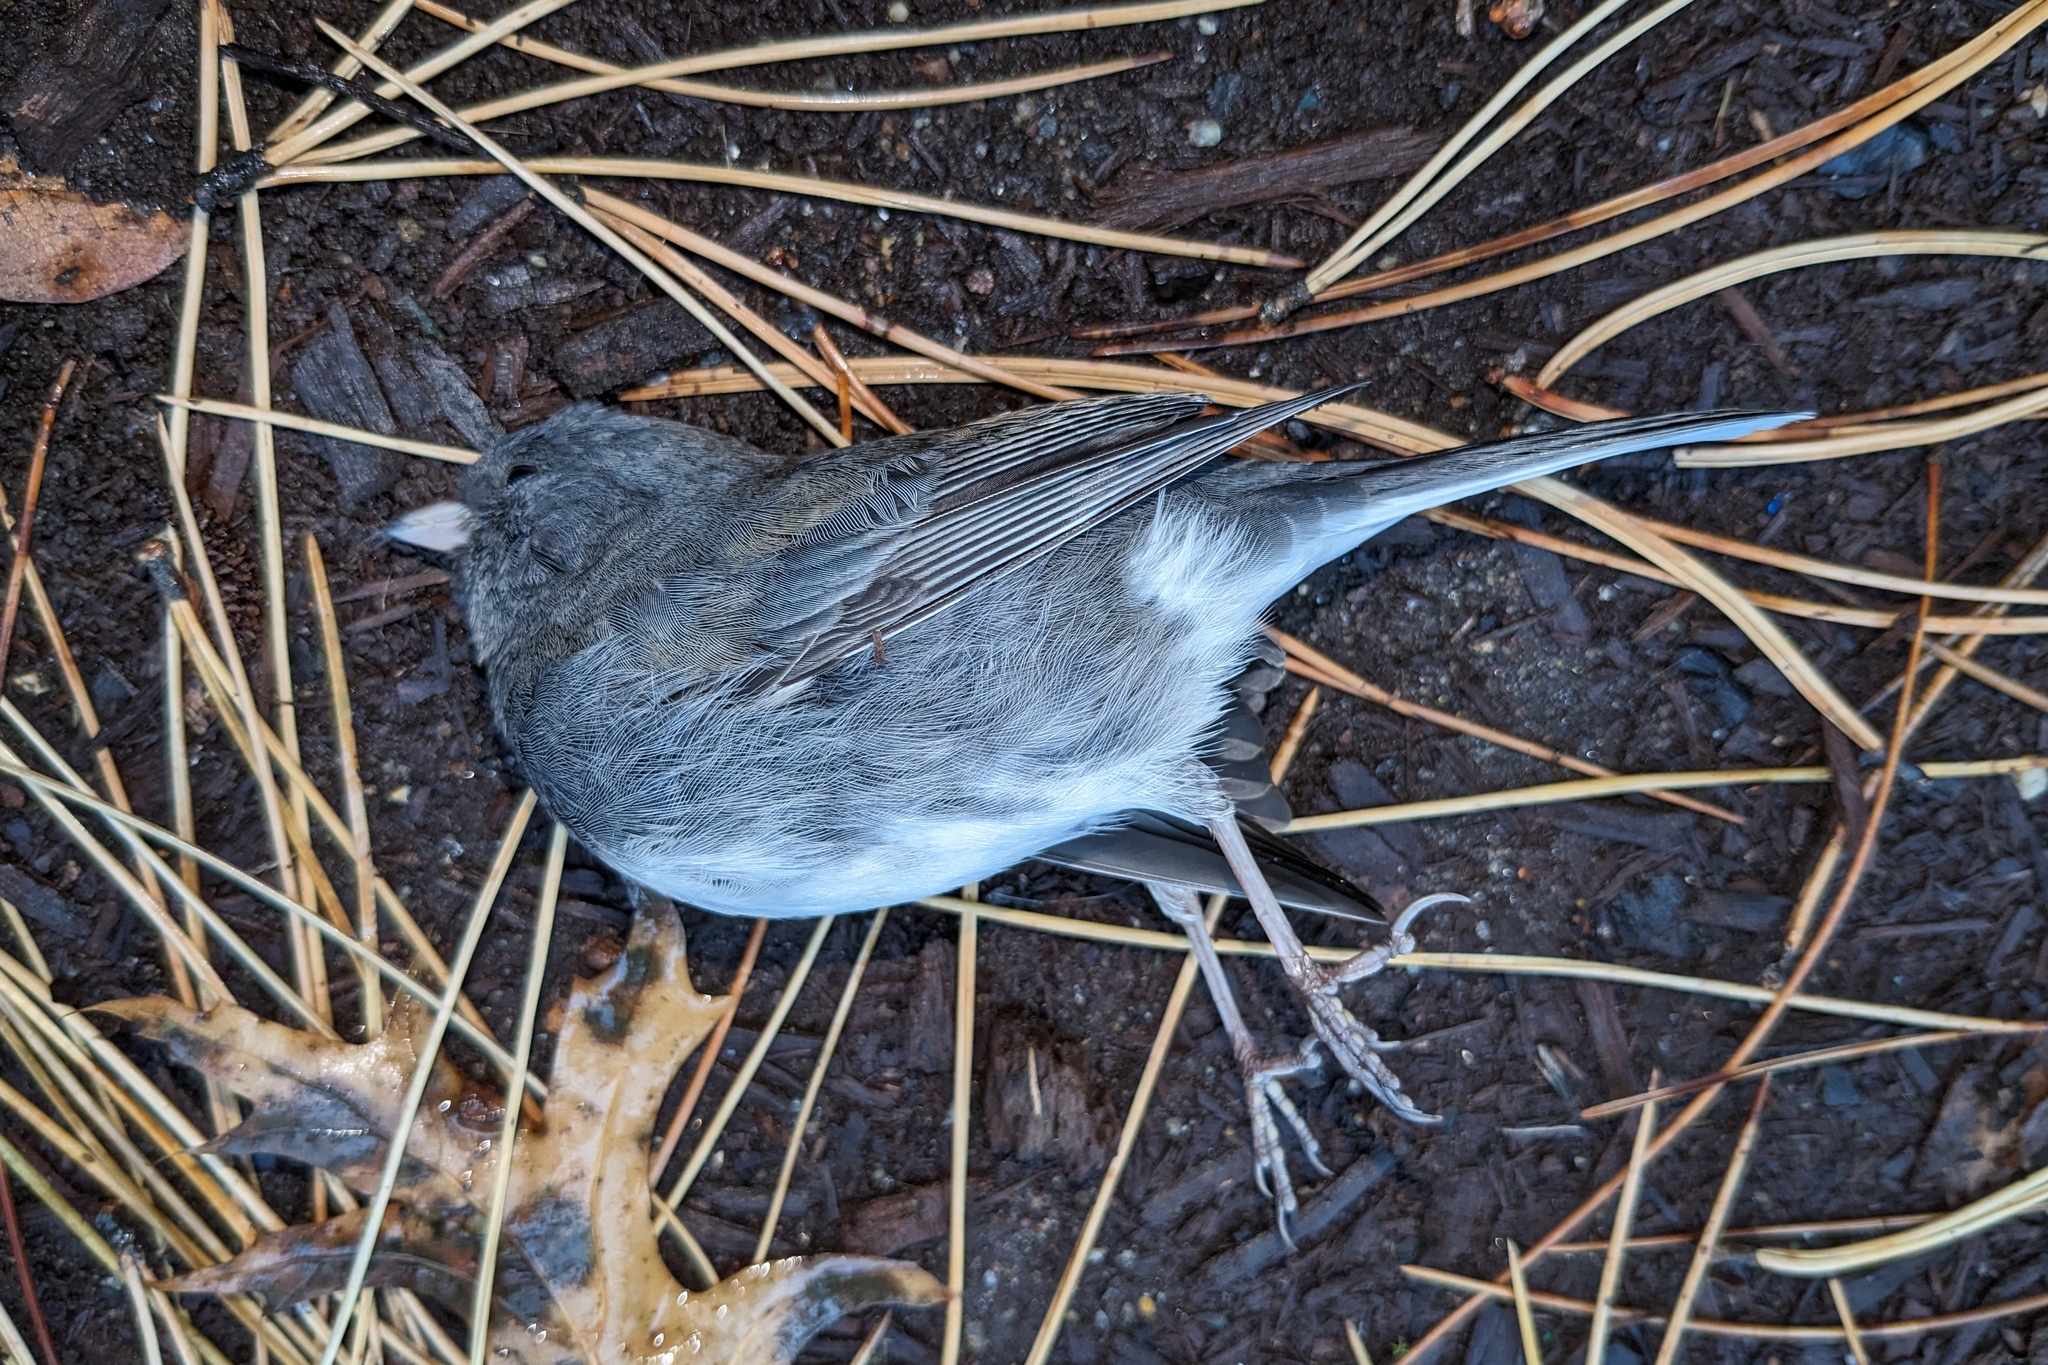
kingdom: Animalia
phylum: Chordata
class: Aves
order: Passeriformes
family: Passerellidae
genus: Junco
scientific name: Junco hyemalis
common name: Dark-eyed junco
